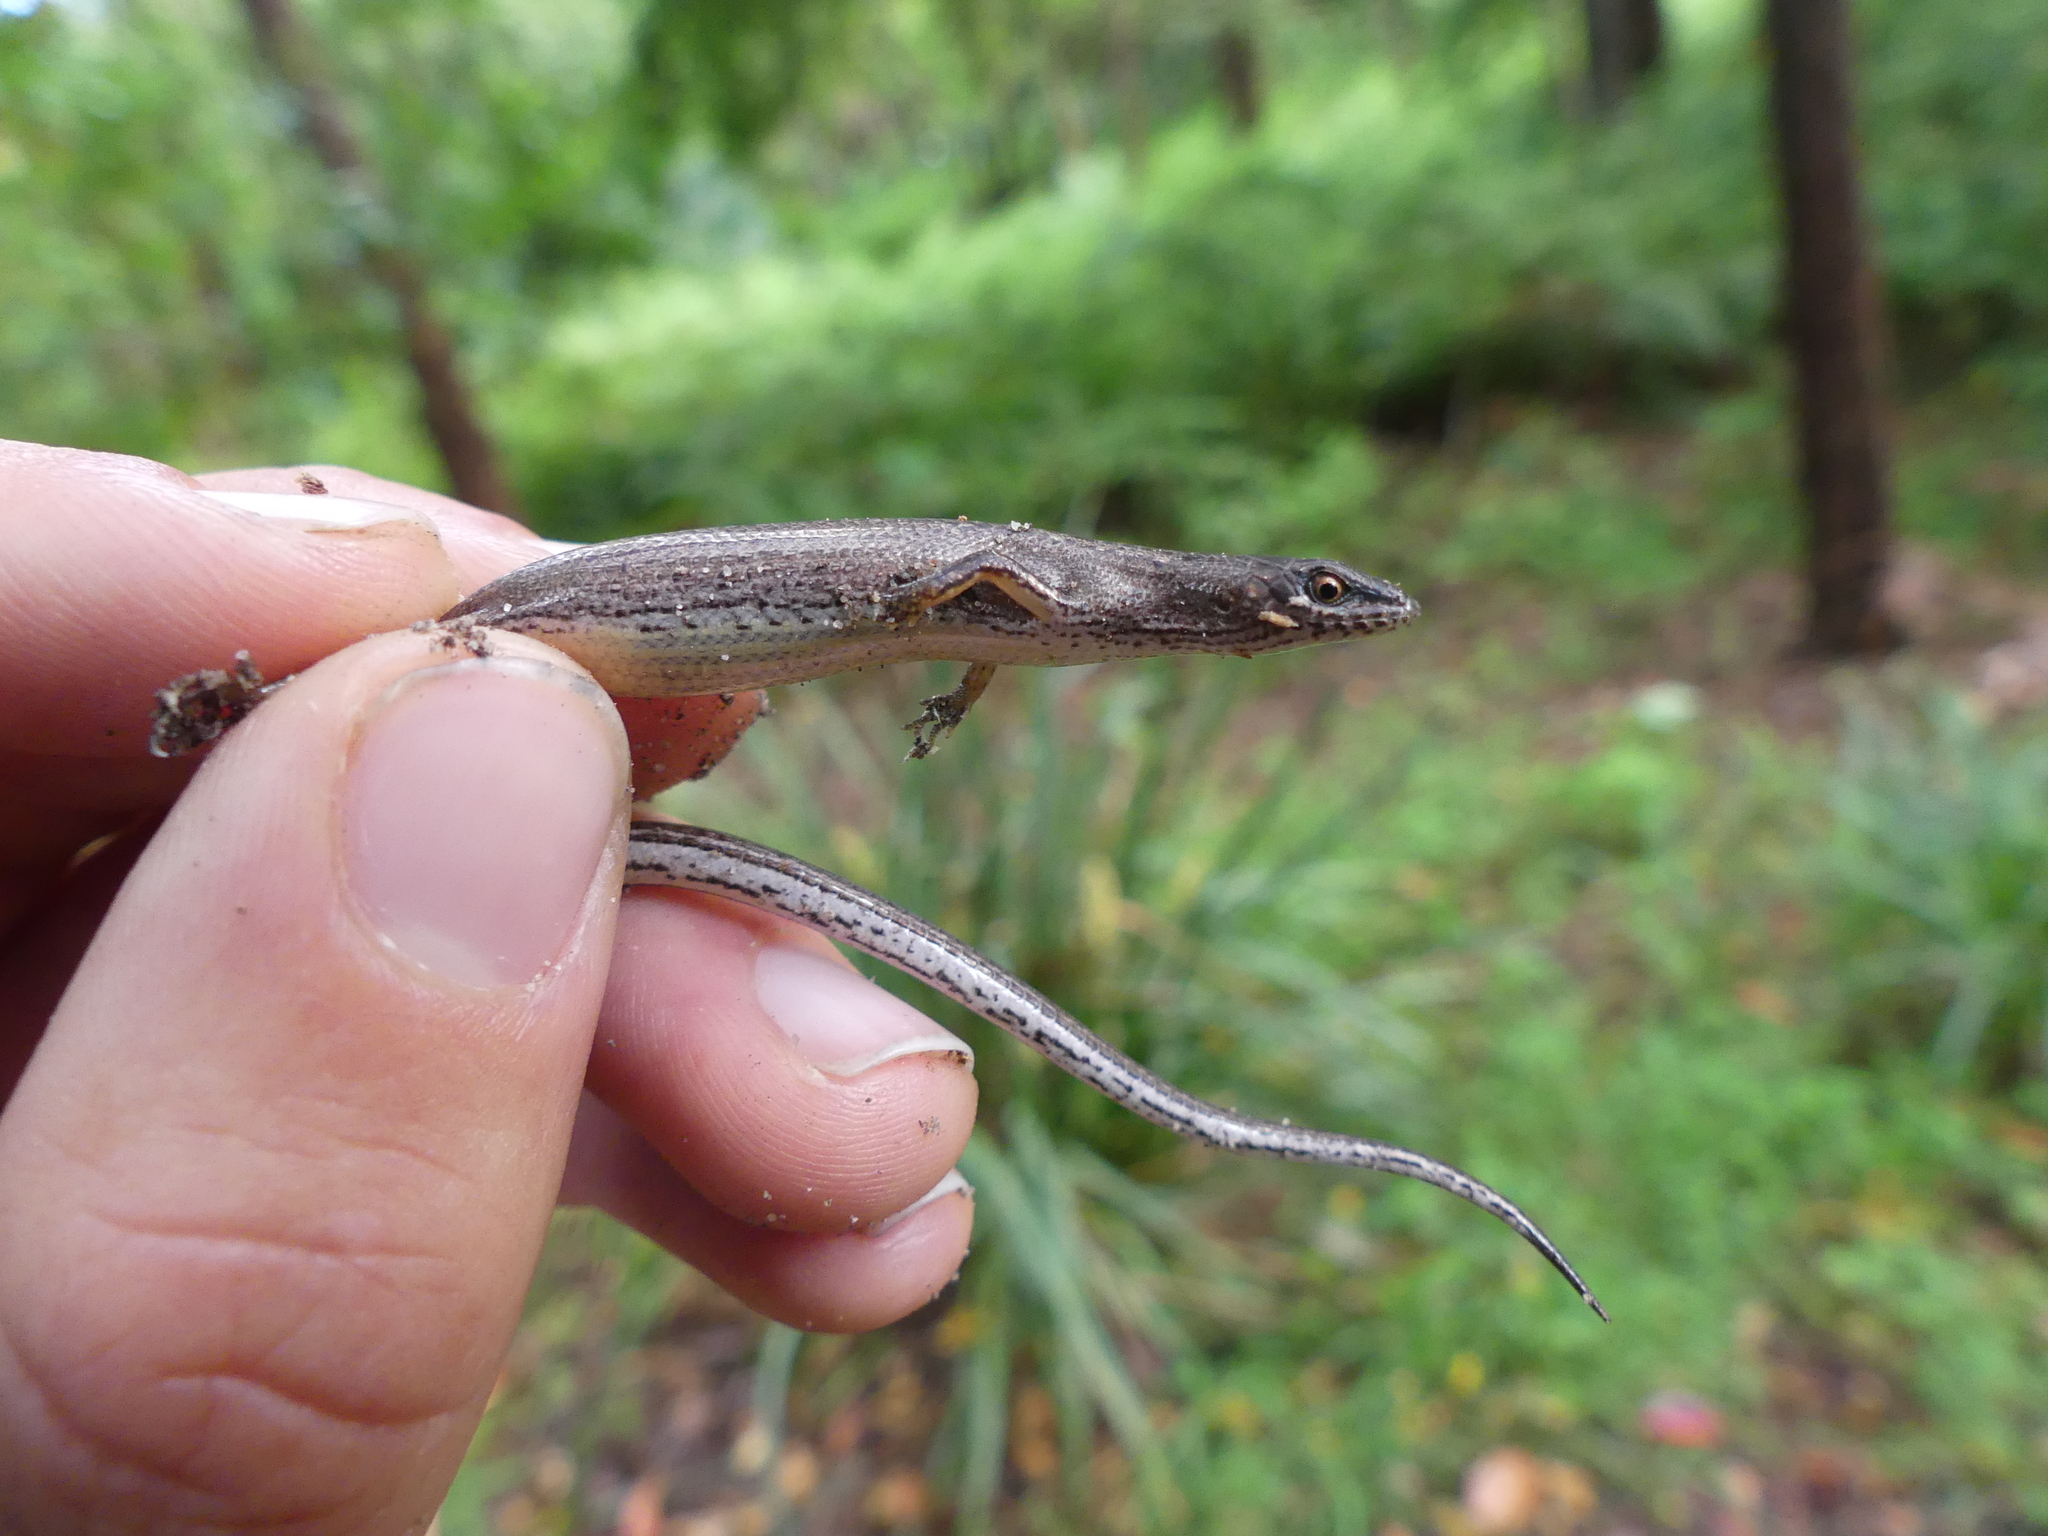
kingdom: Animalia
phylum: Chordata
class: Squamata
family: Scincidae
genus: Saproscincus
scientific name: Saproscincus mustelinus
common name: Southern weasel skink
